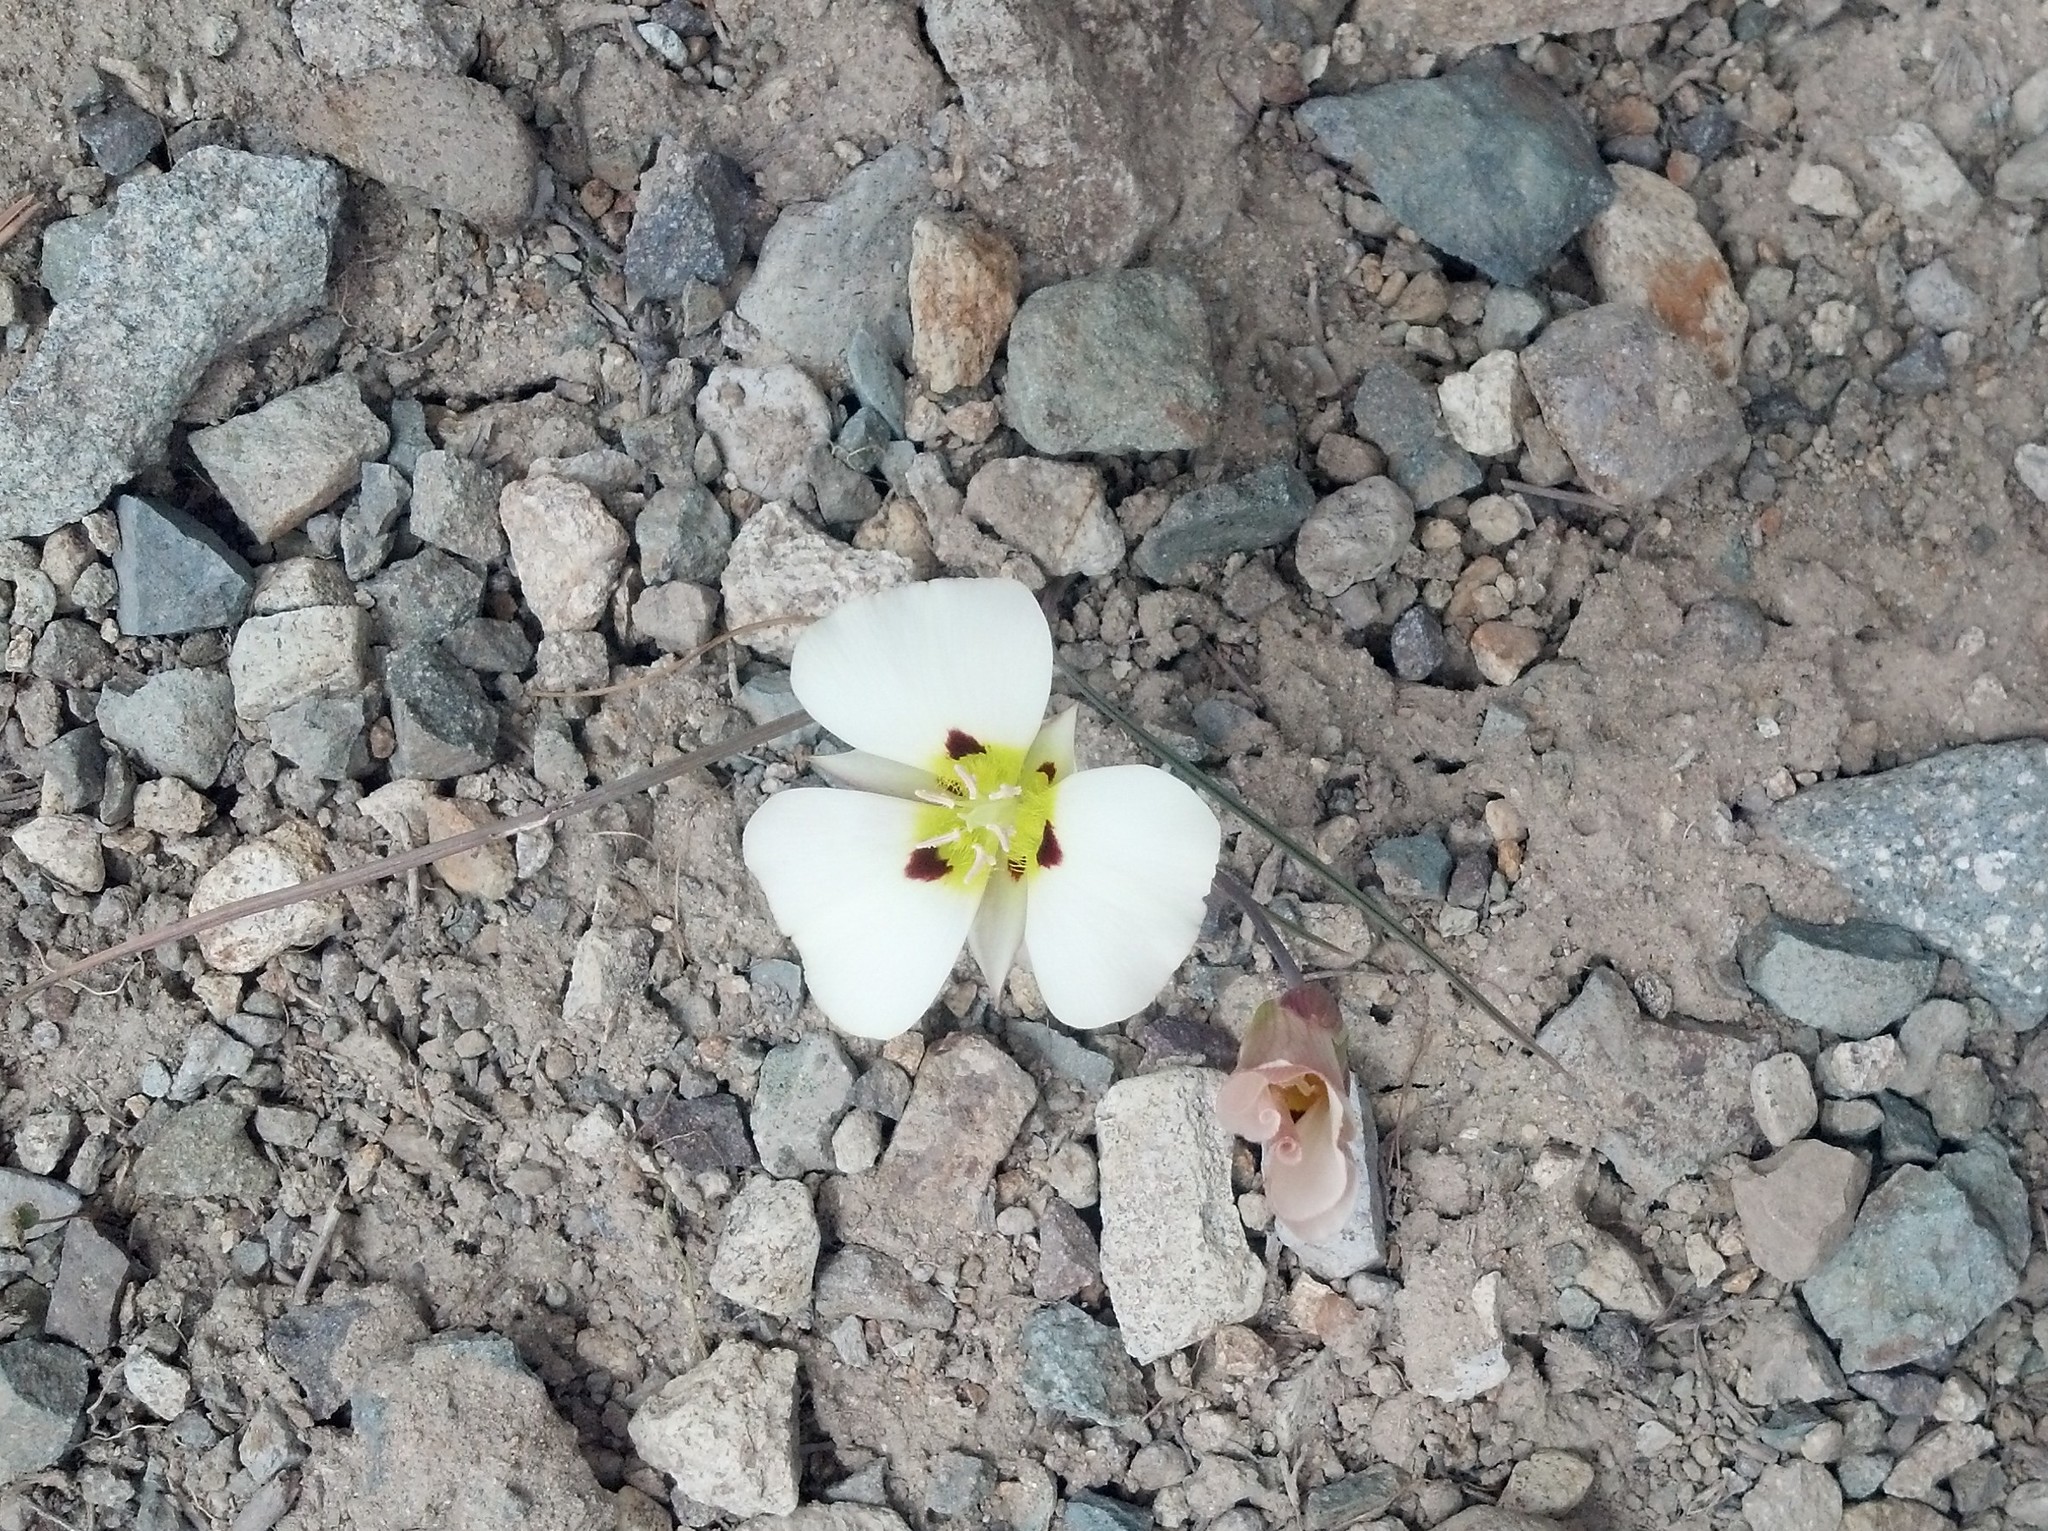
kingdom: Plantae
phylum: Tracheophyta
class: Liliopsida
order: Liliales
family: Liliaceae
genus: Calochortus
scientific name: Calochortus leichtlinii
